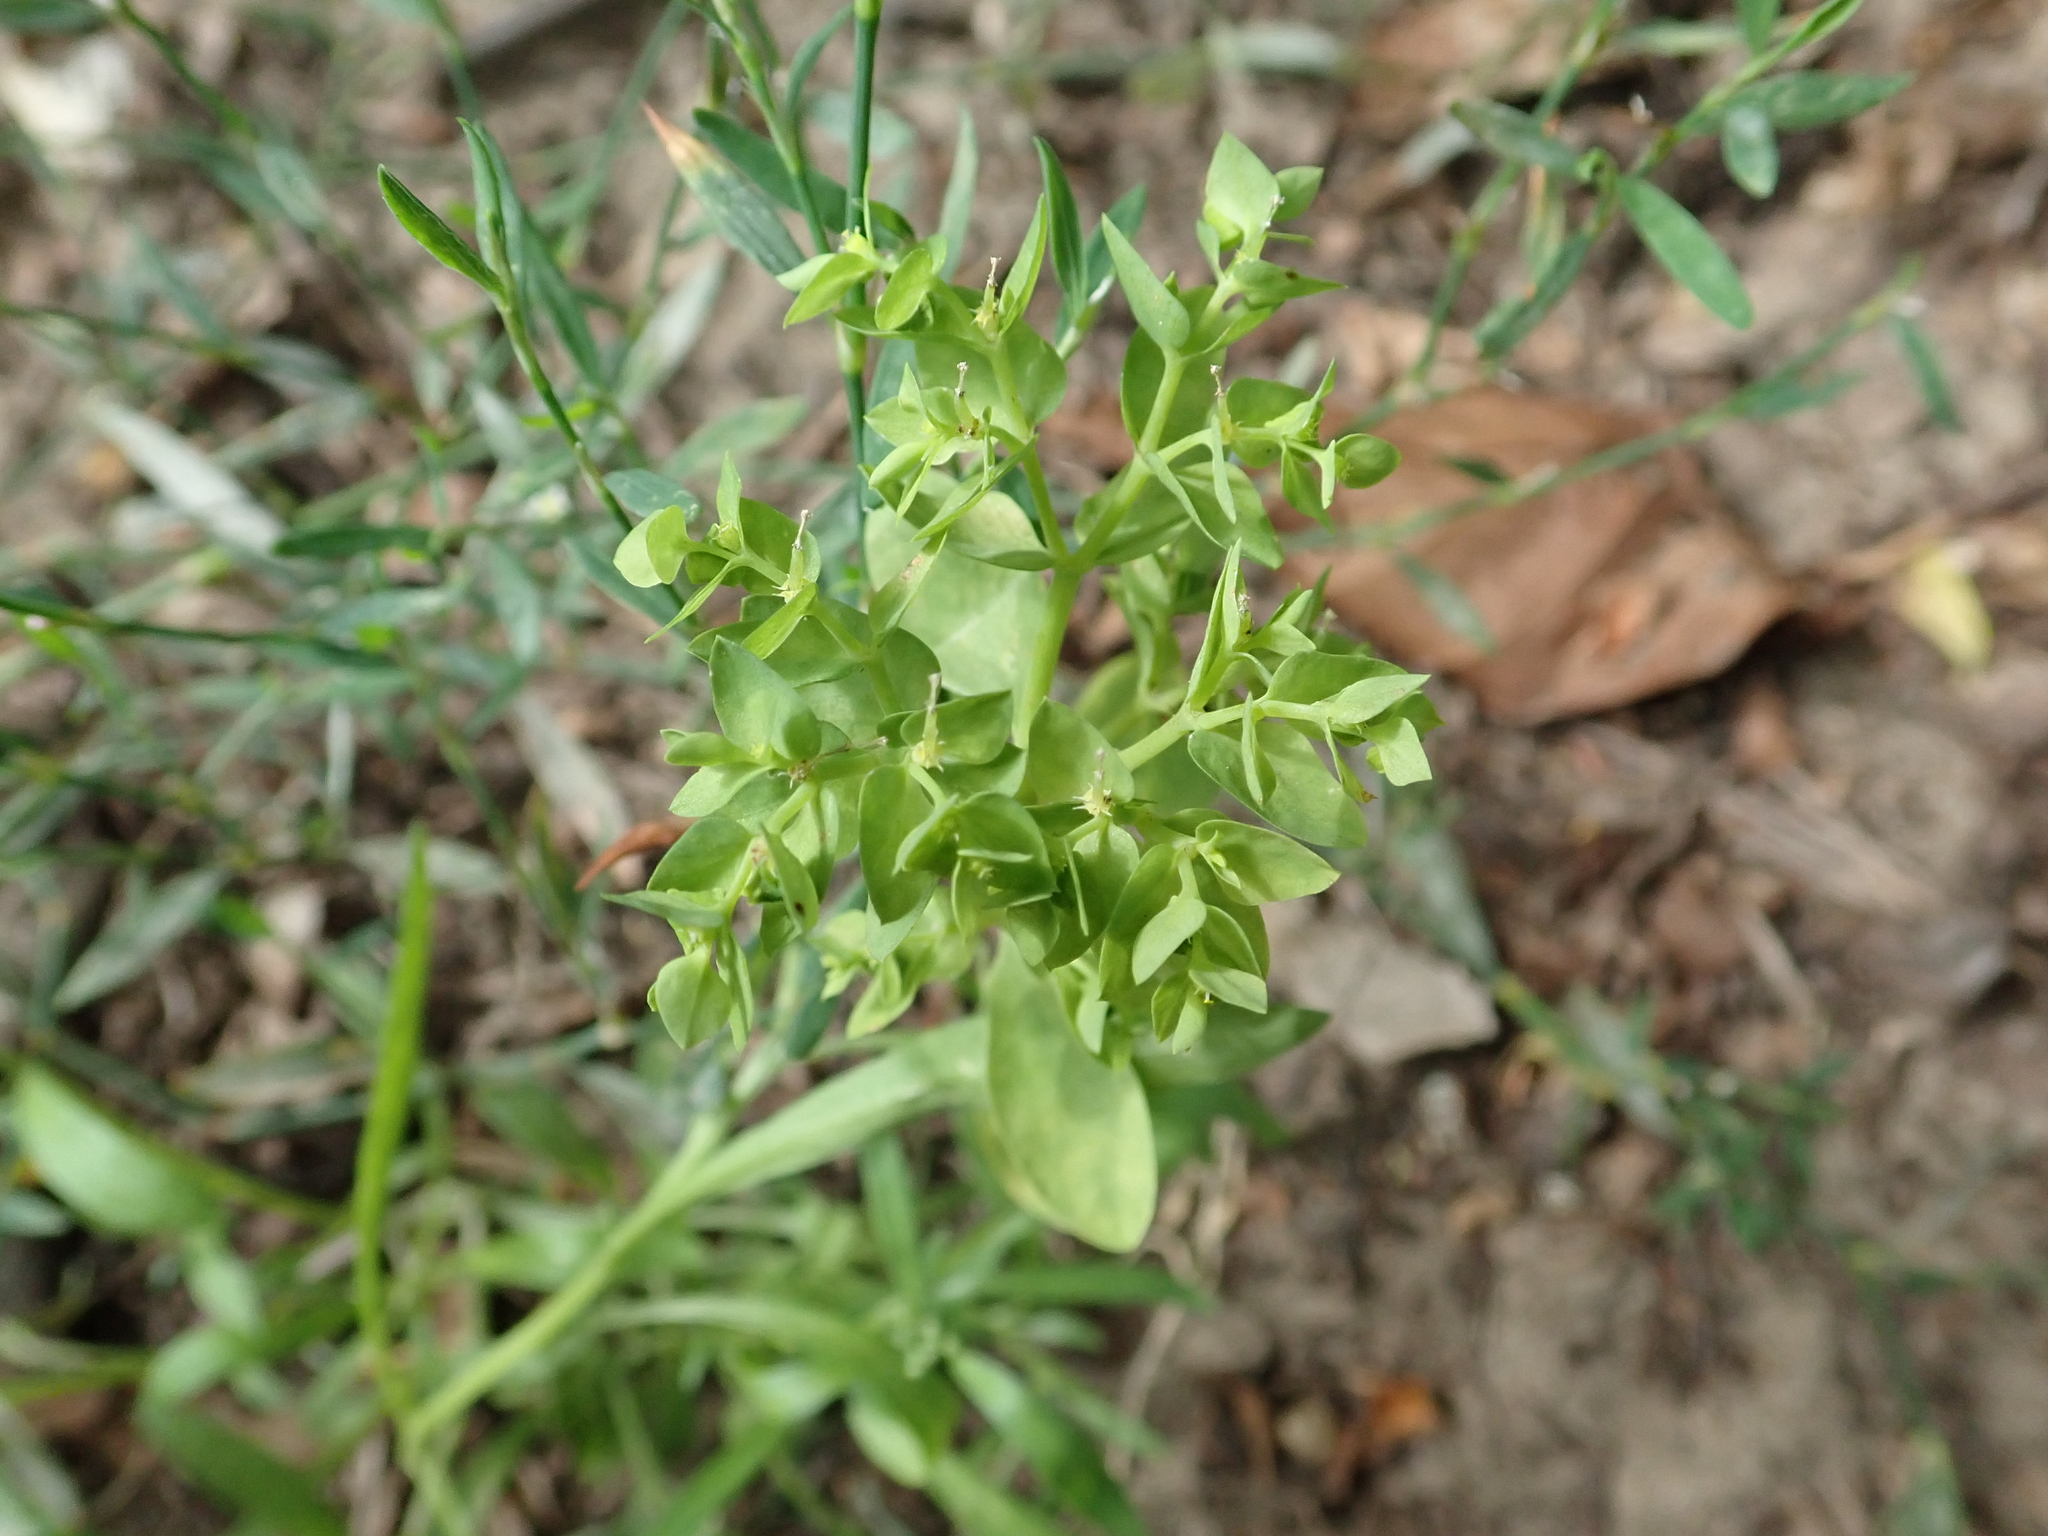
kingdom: Plantae
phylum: Tracheophyta
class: Magnoliopsida
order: Malpighiales
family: Euphorbiaceae
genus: Euphorbia
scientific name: Euphorbia peplus
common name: Petty spurge
